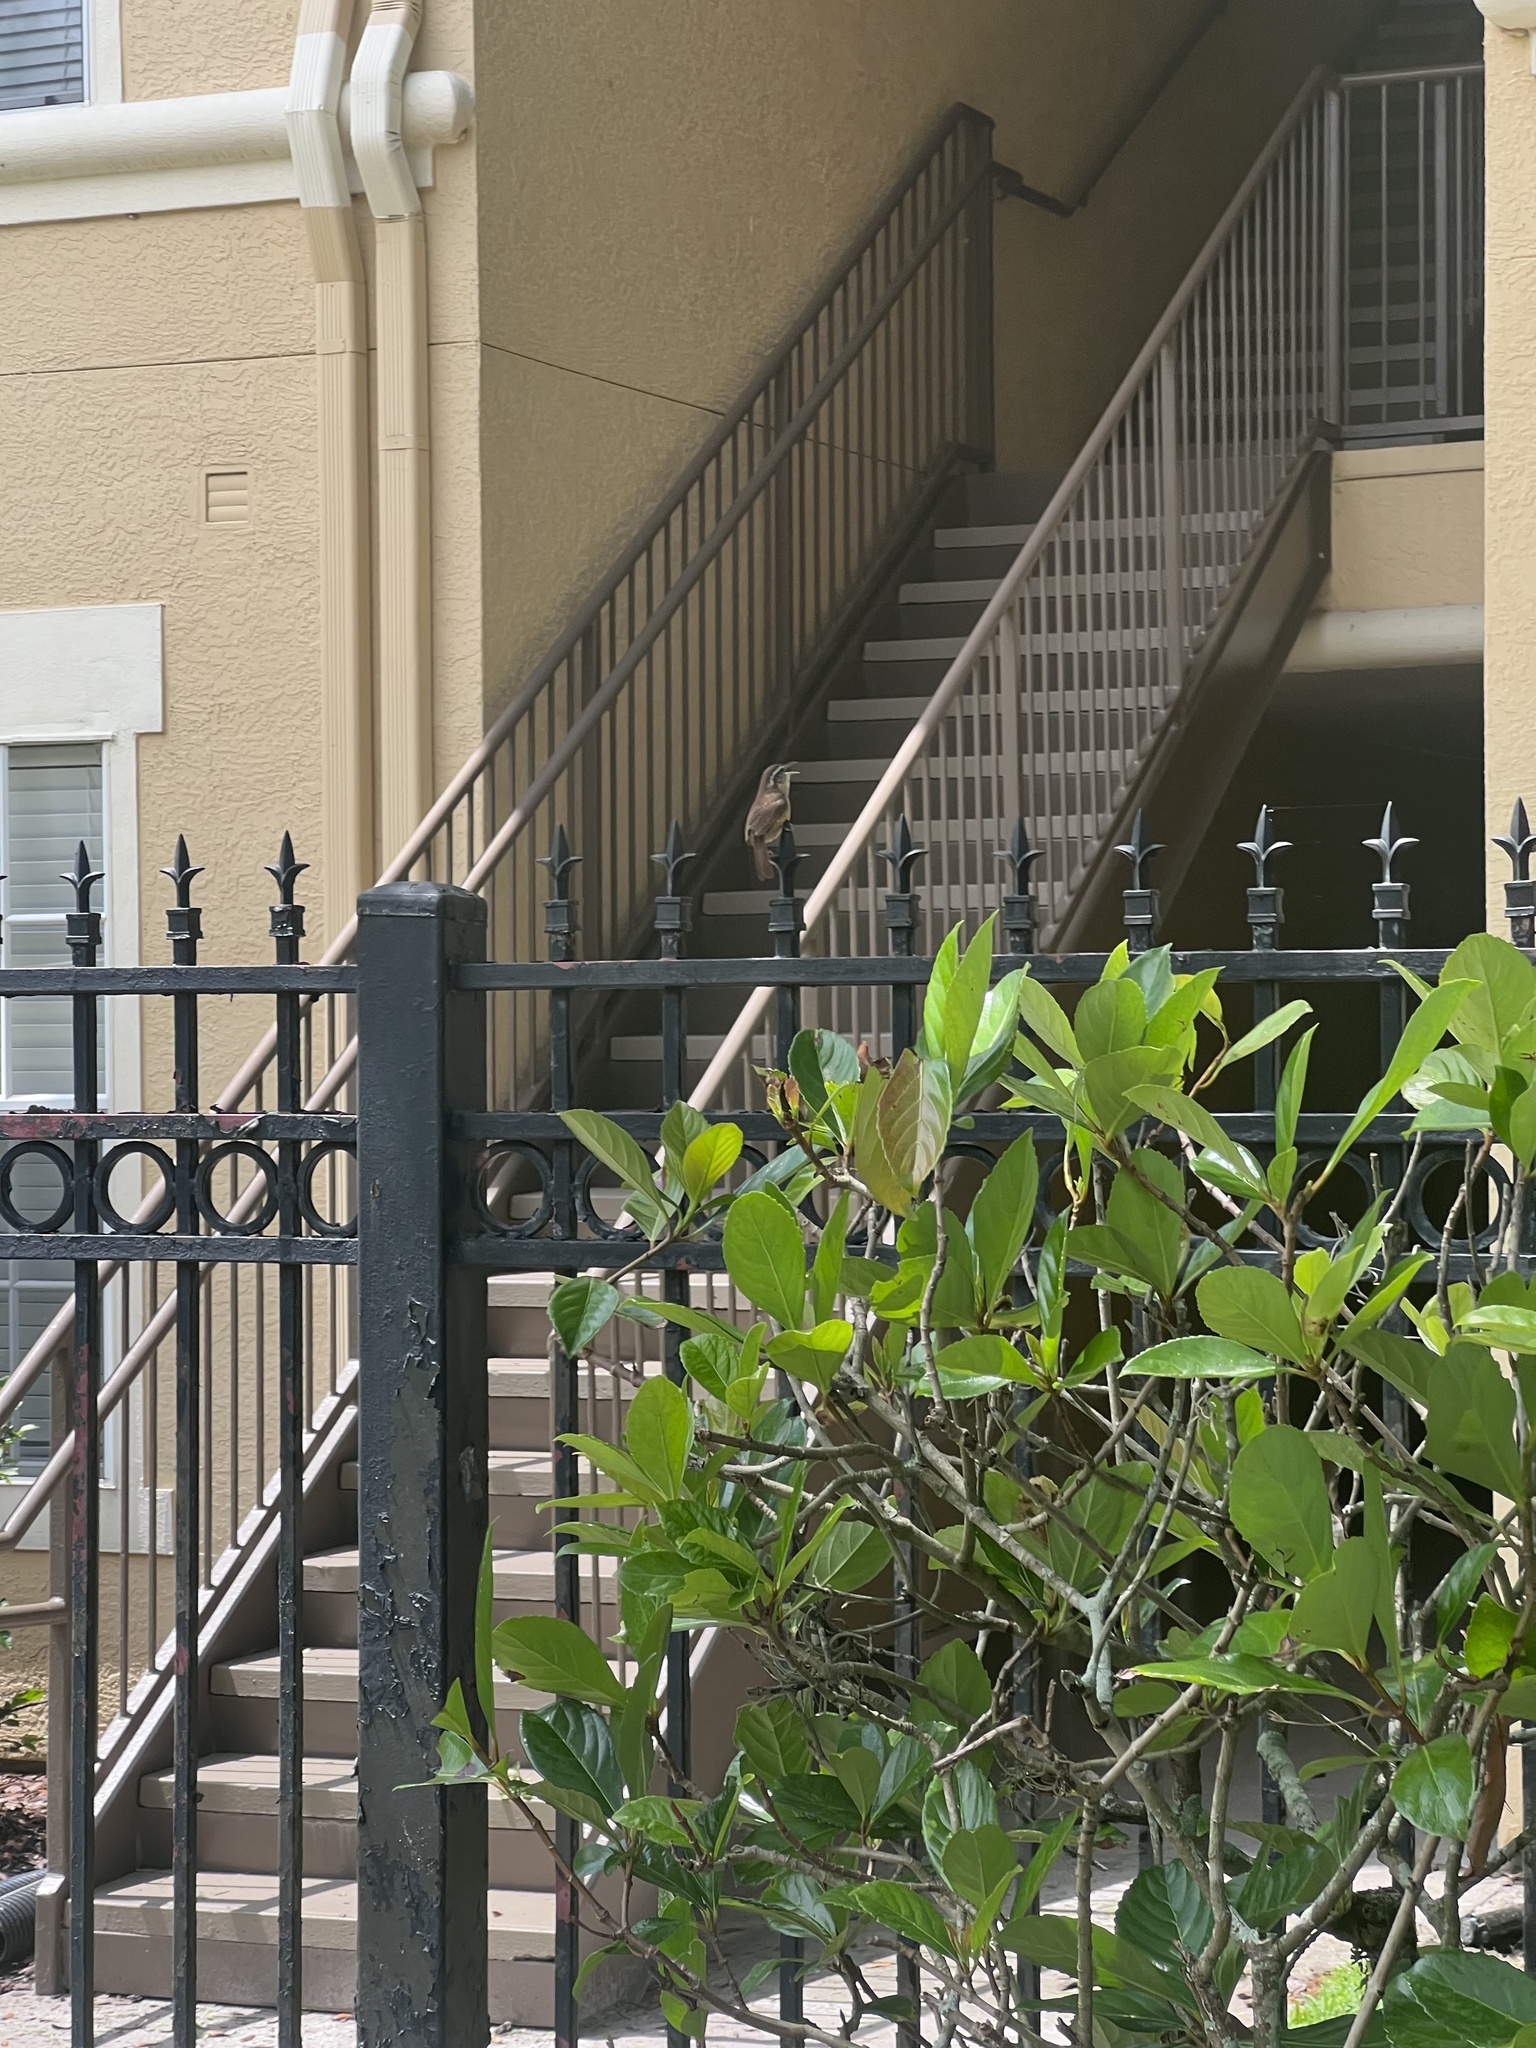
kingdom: Animalia
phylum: Chordata
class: Aves
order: Passeriformes
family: Troglodytidae
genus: Thryothorus
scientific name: Thryothorus ludovicianus
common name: Carolina wren
